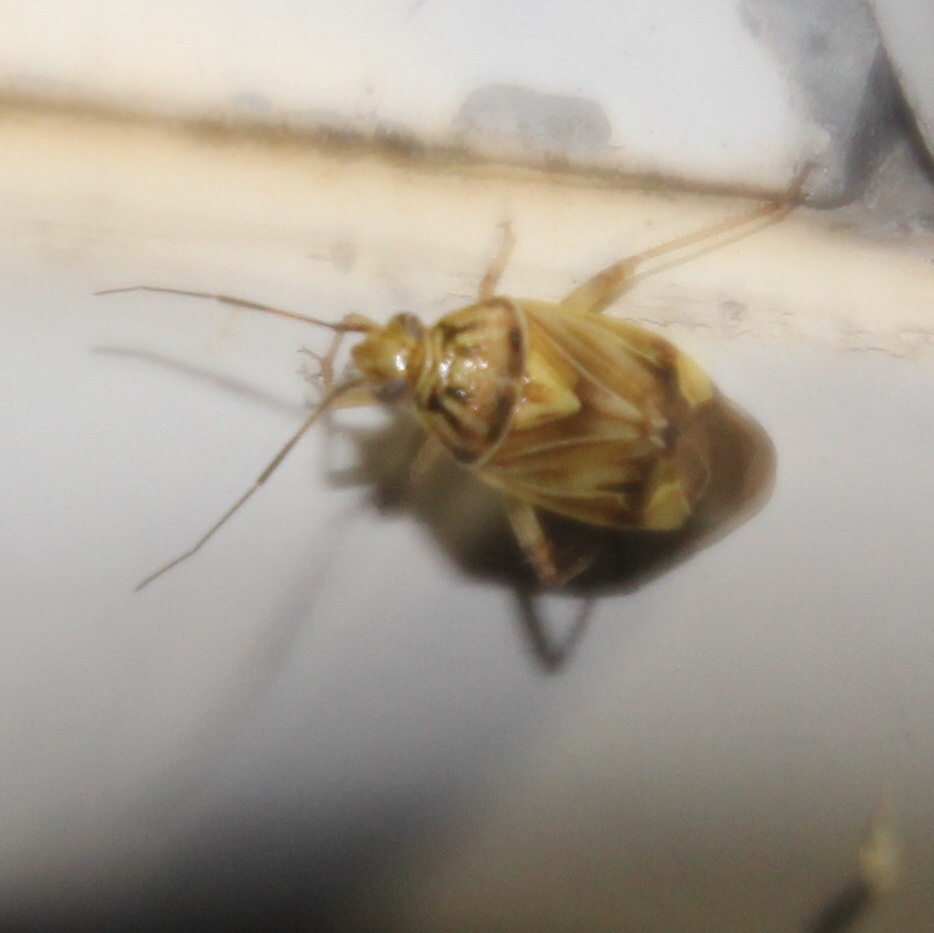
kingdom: Animalia
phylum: Arthropoda
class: Insecta
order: Hemiptera
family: Miridae
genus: Lygus
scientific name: Lygus lineolaris
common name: North american tarnished plant bug
